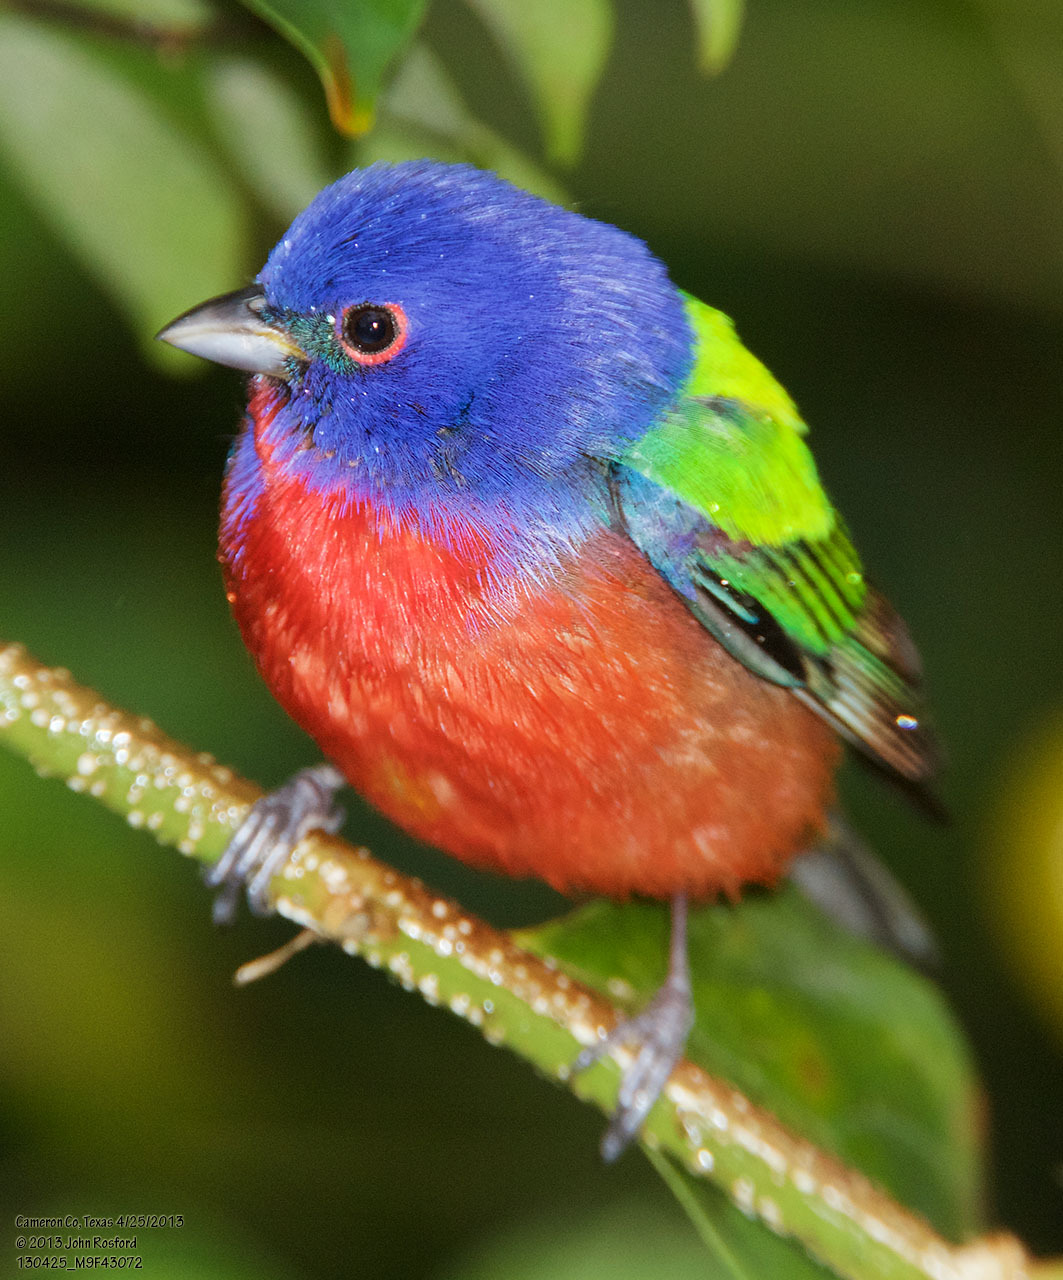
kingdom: Animalia
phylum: Chordata
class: Aves
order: Passeriformes
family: Cardinalidae
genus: Passerina
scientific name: Passerina ciris
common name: Painted bunting
